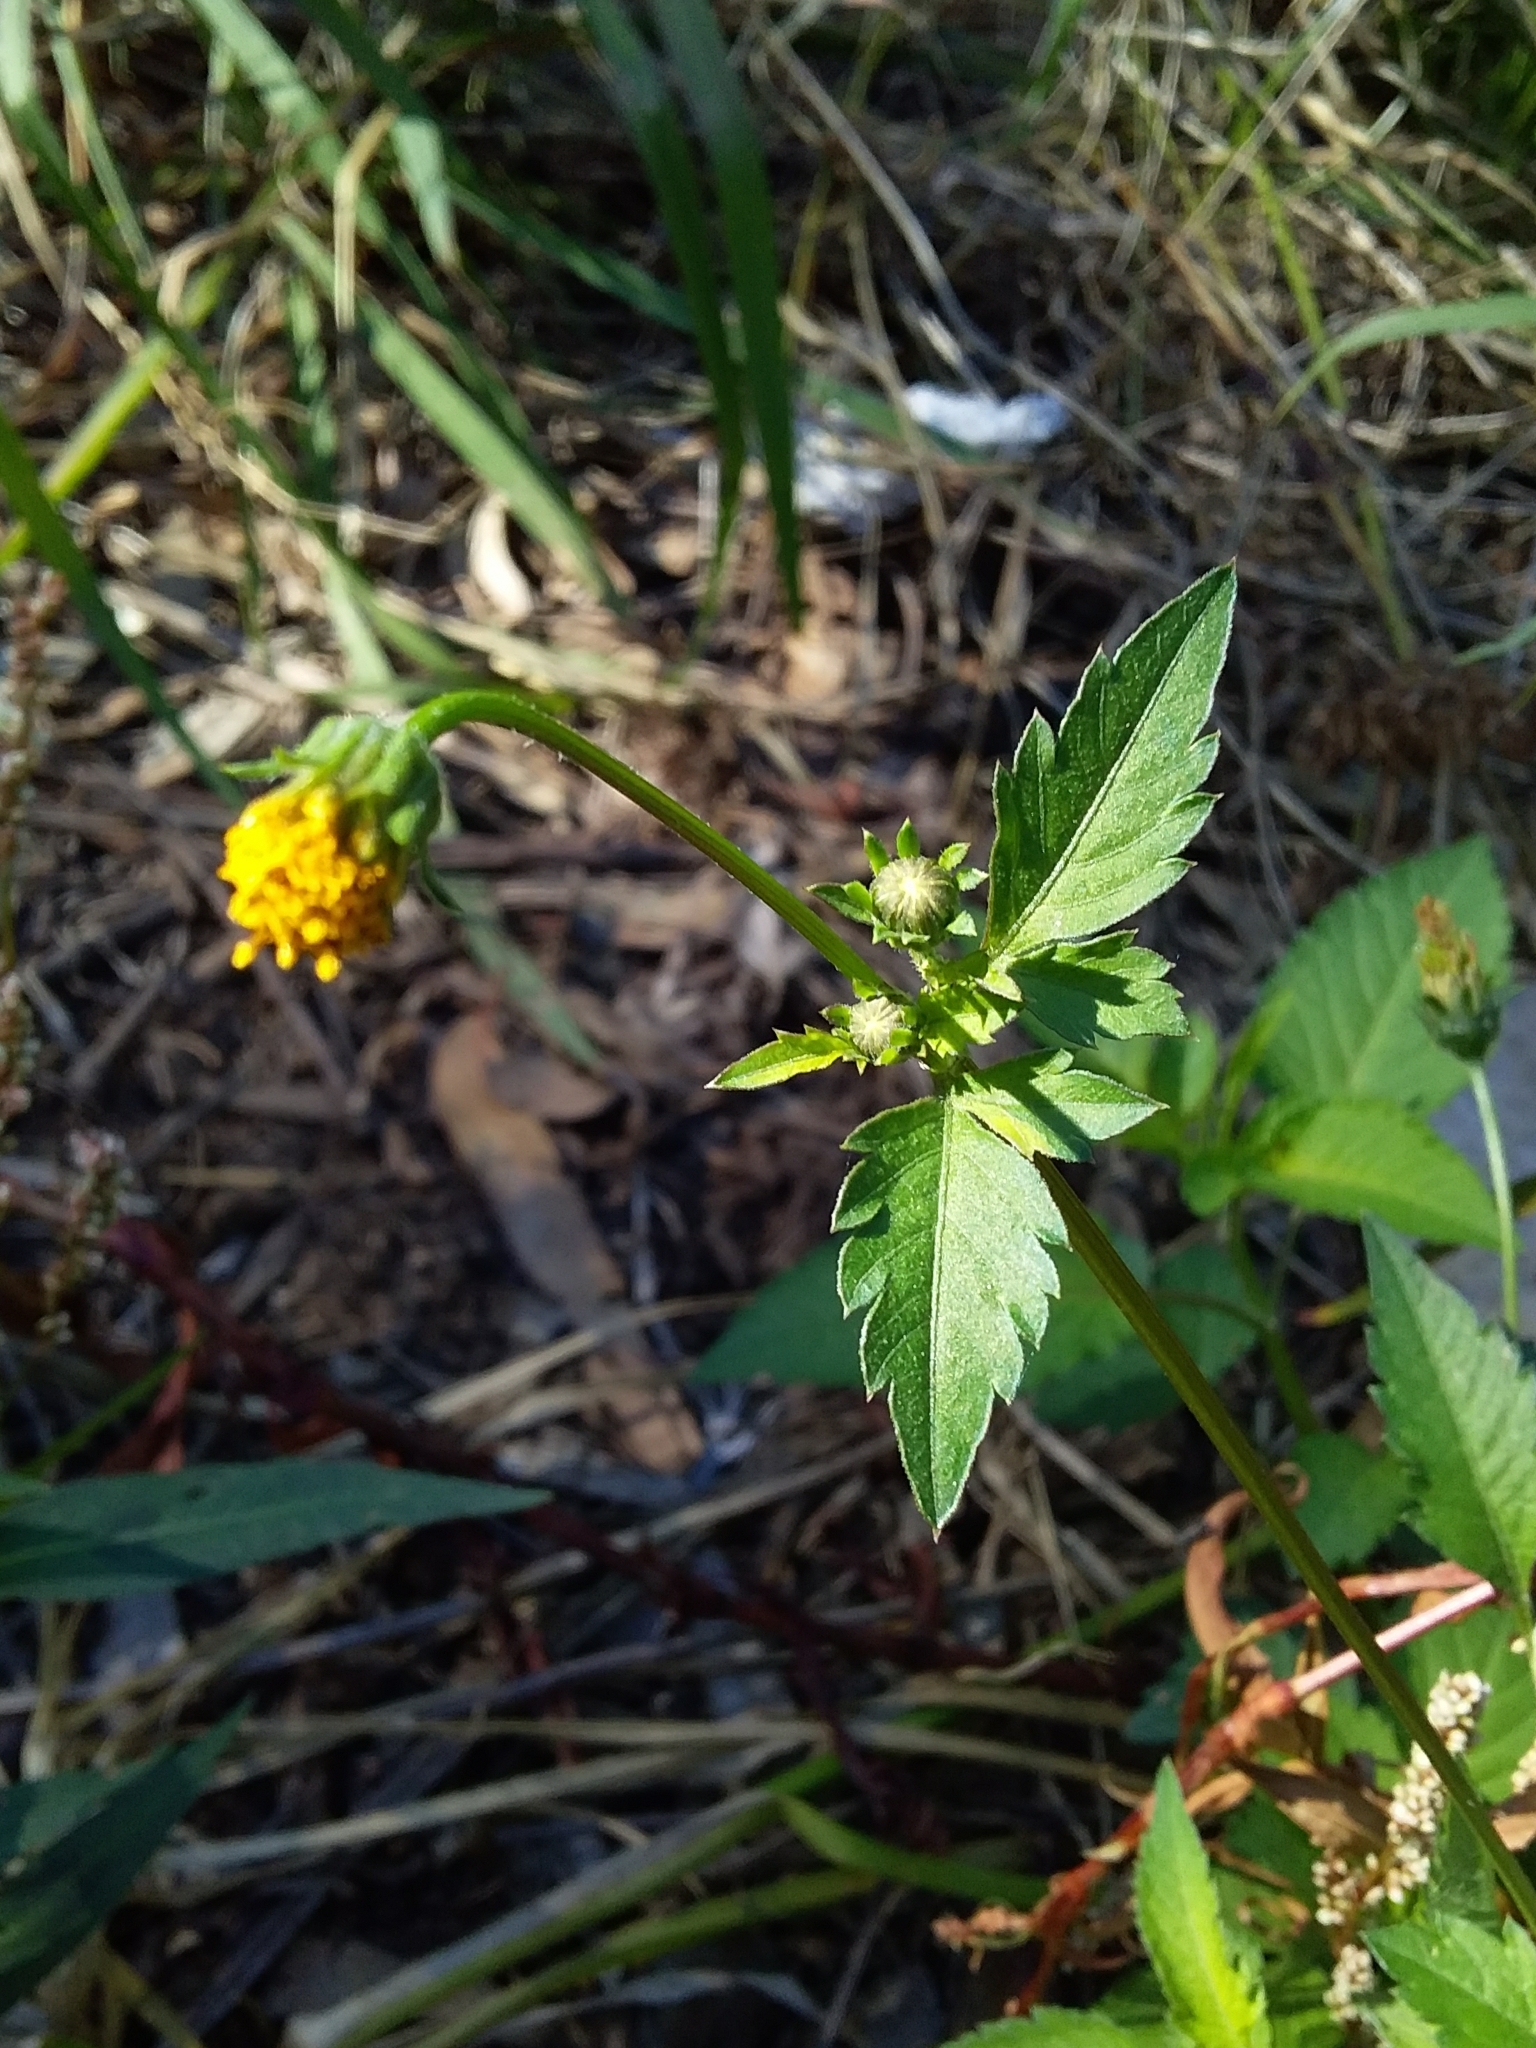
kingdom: Plantae
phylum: Tracheophyta
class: Magnoliopsida
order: Asterales
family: Asteraceae
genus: Bidens
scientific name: Bidens pilosa
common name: Black-jack
